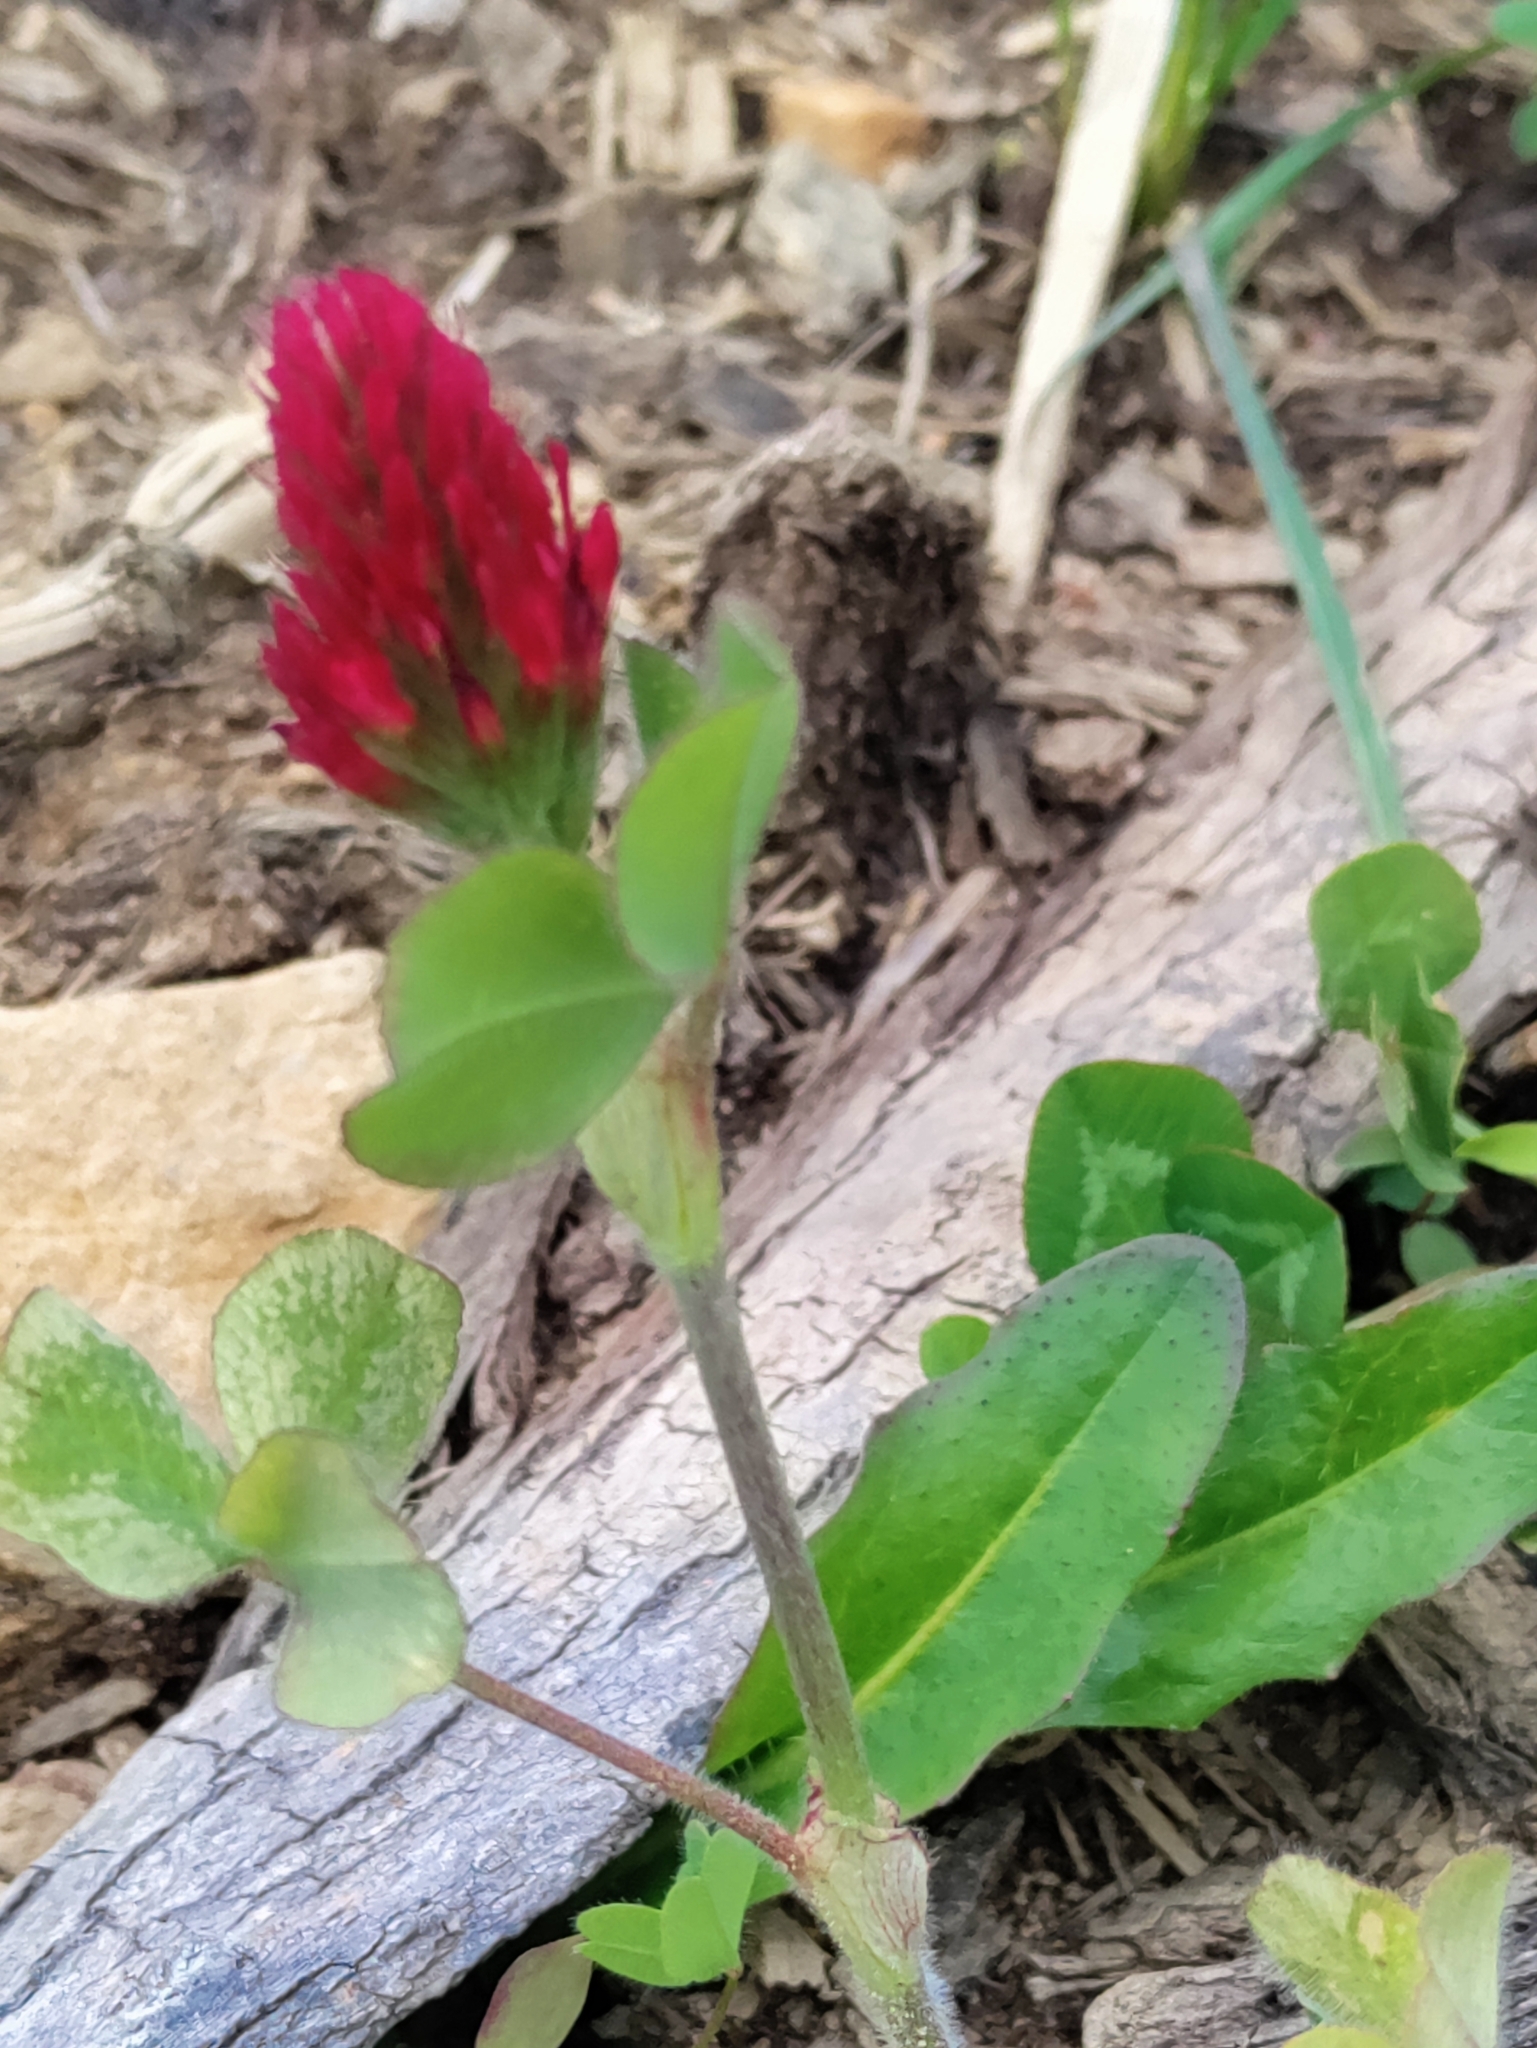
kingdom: Plantae
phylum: Tracheophyta
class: Magnoliopsida
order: Fabales
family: Fabaceae
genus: Trifolium
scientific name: Trifolium incarnatum
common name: Crimson clover
